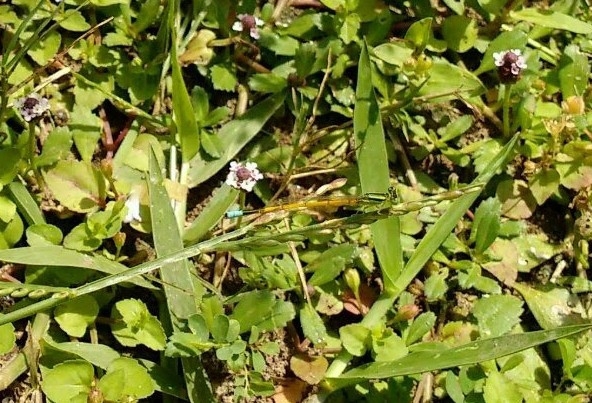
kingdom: Animalia
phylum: Arthropoda
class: Insecta
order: Odonata
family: Coenagrionidae
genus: Ischnura
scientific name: Ischnura rubilio
